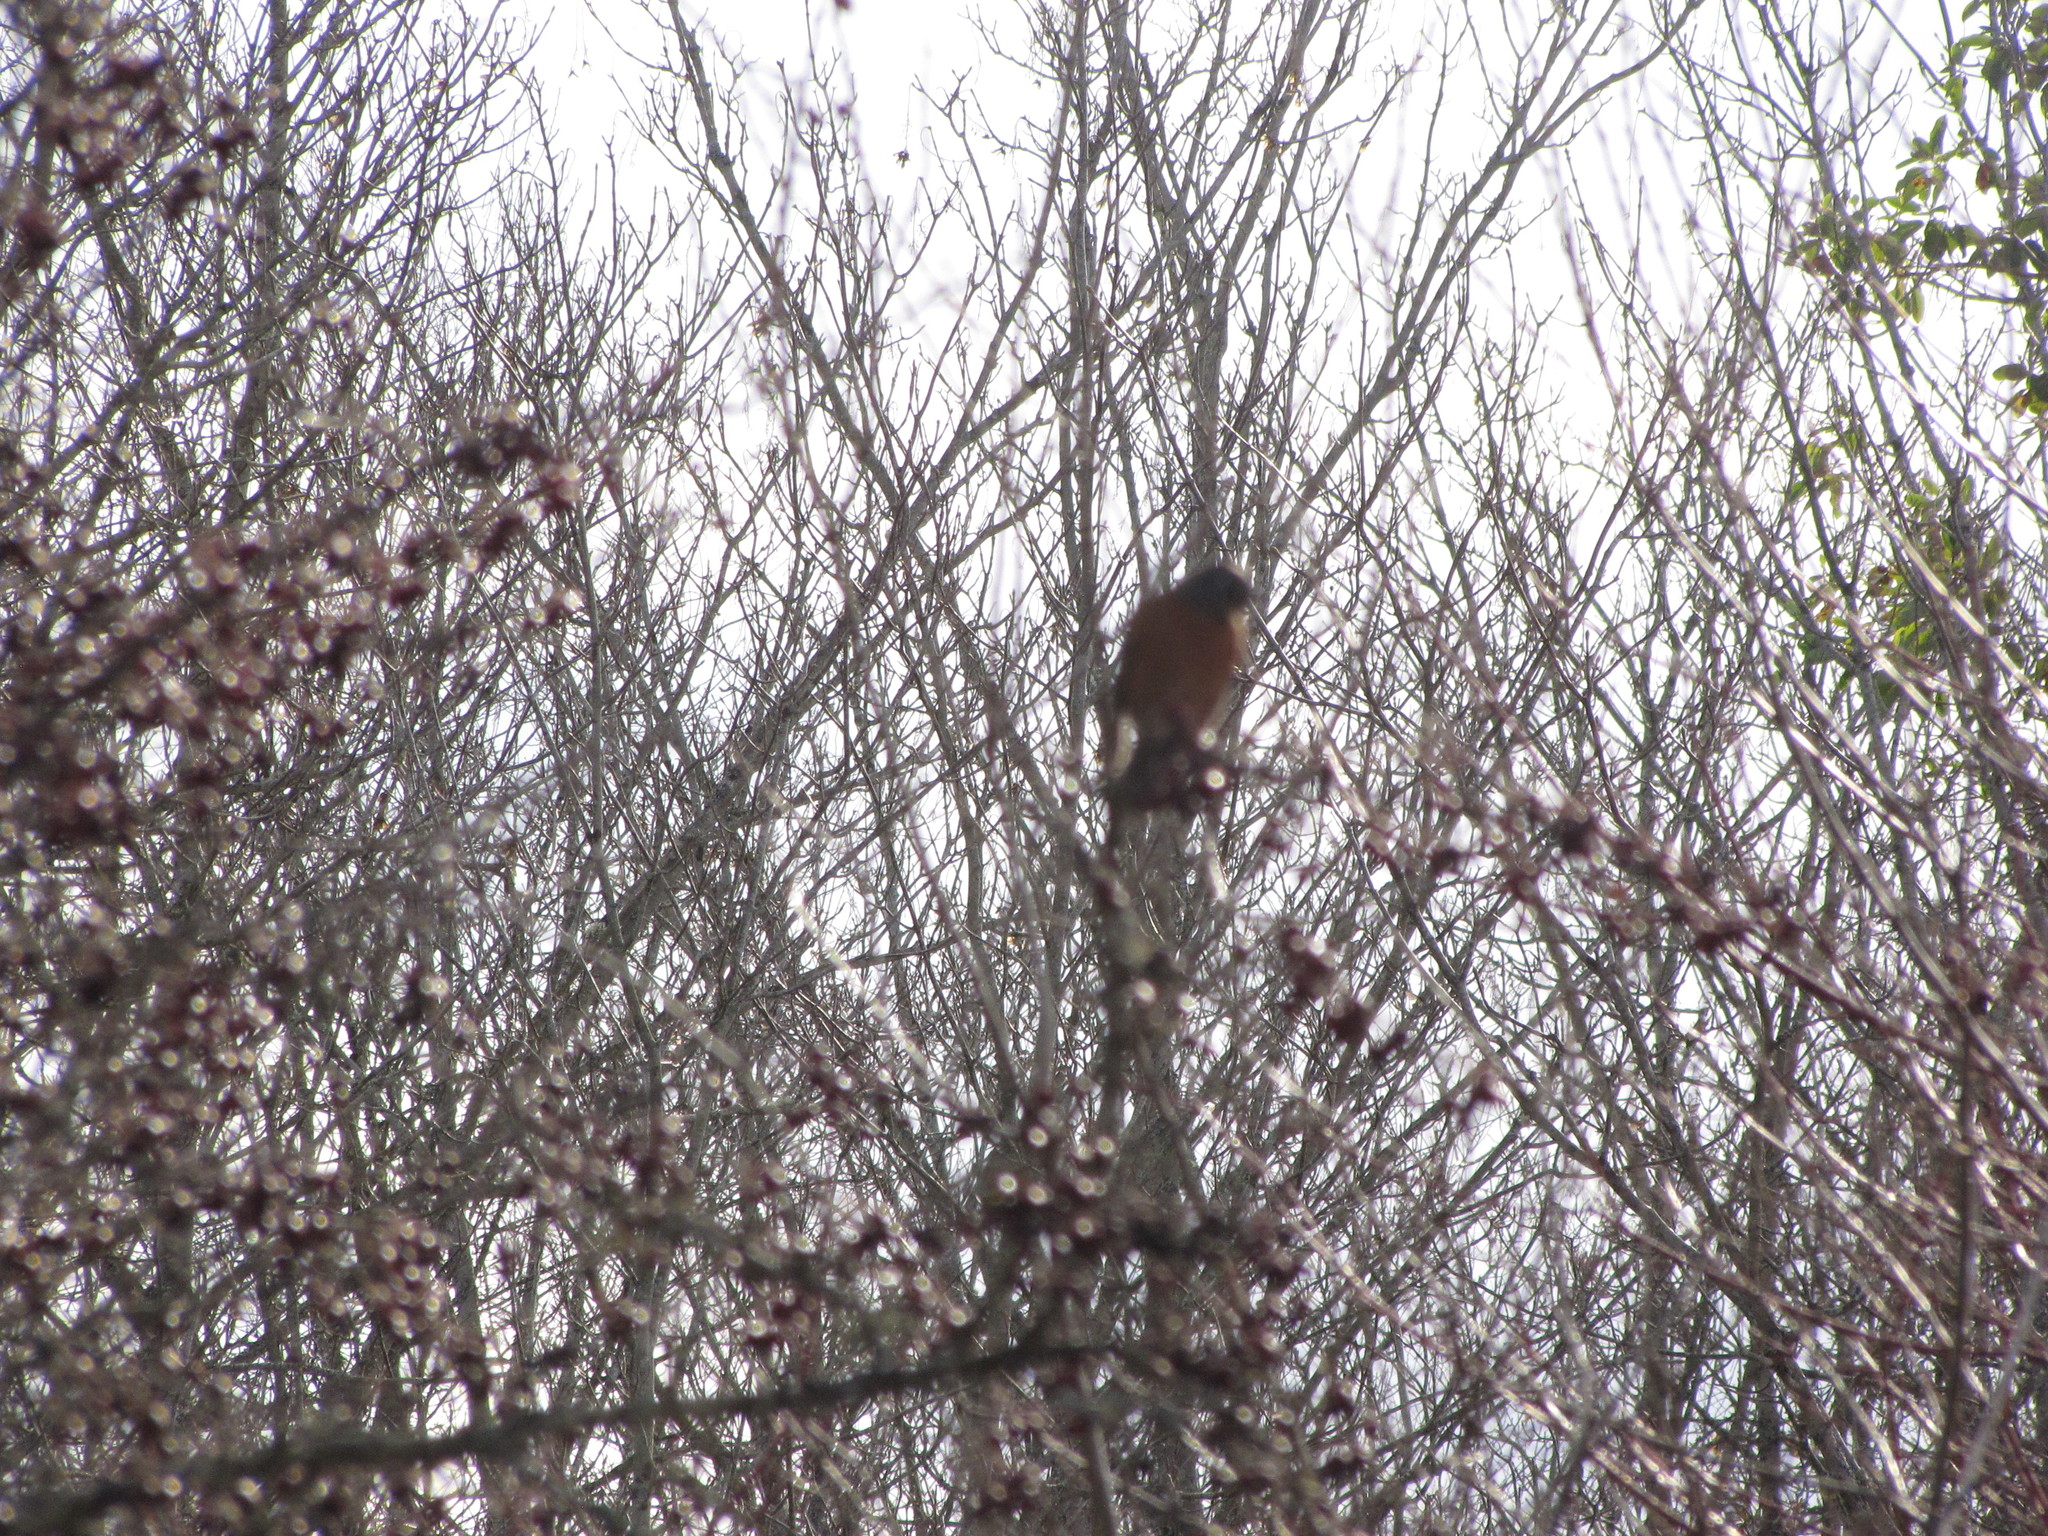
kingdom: Animalia
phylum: Chordata
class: Aves
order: Passeriformes
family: Turdidae
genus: Turdus
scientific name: Turdus migratorius
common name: American robin
